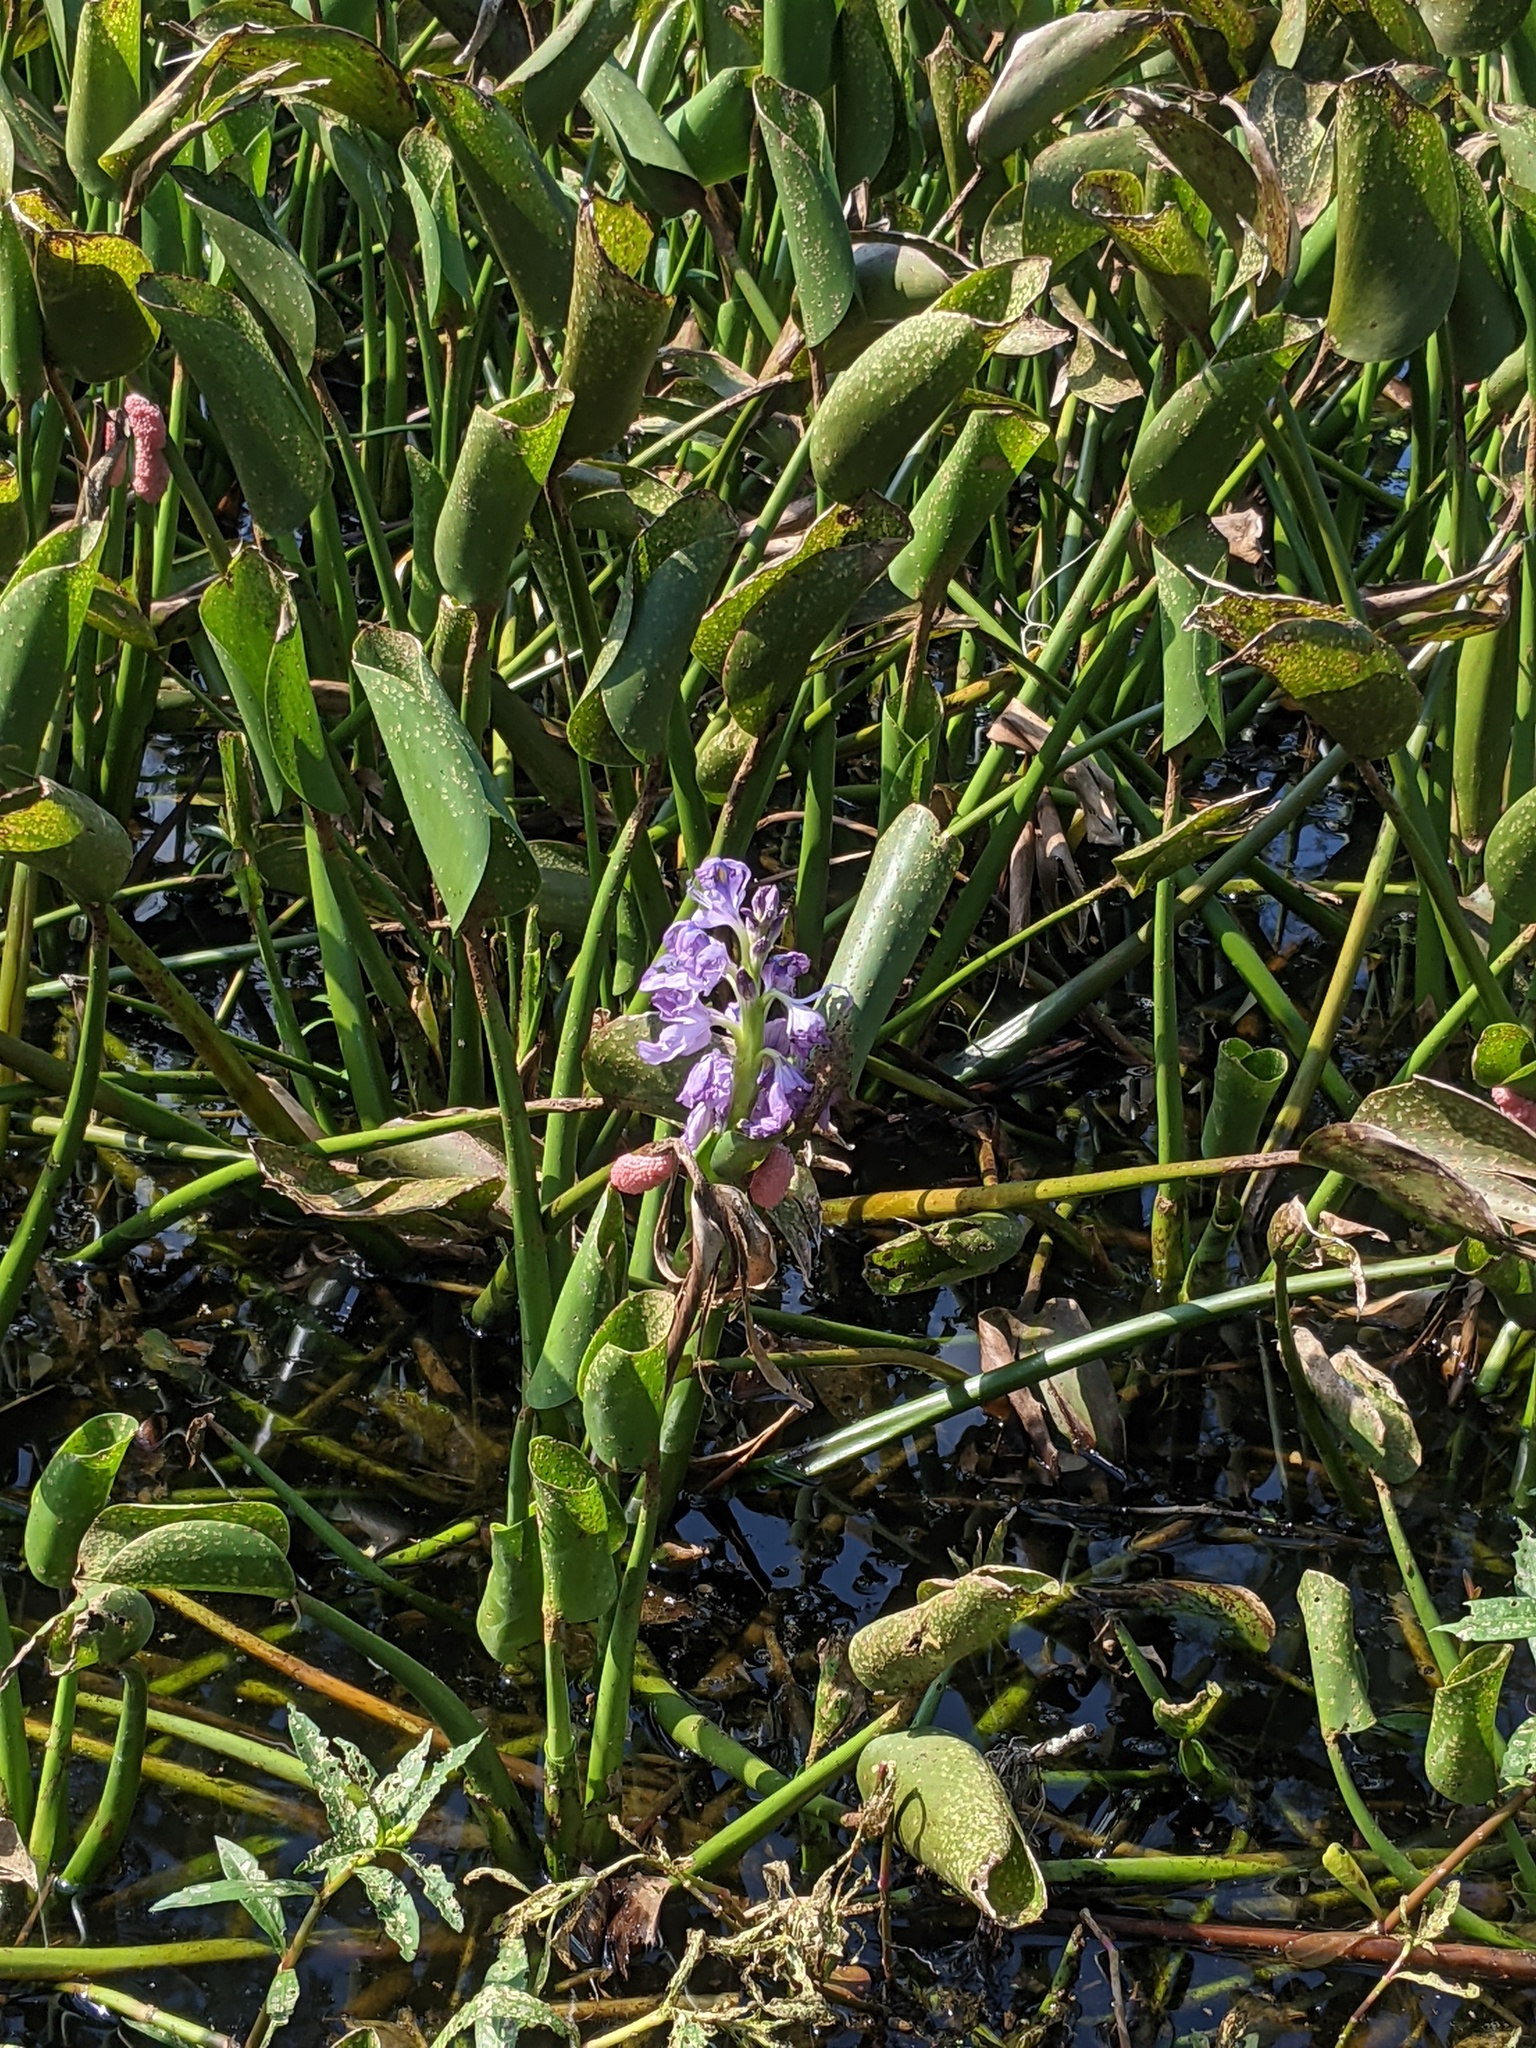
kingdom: Plantae
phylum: Tracheophyta
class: Liliopsida
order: Commelinales
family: Pontederiaceae
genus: Pontederia
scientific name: Pontederia cordata
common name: Pickerelweed
